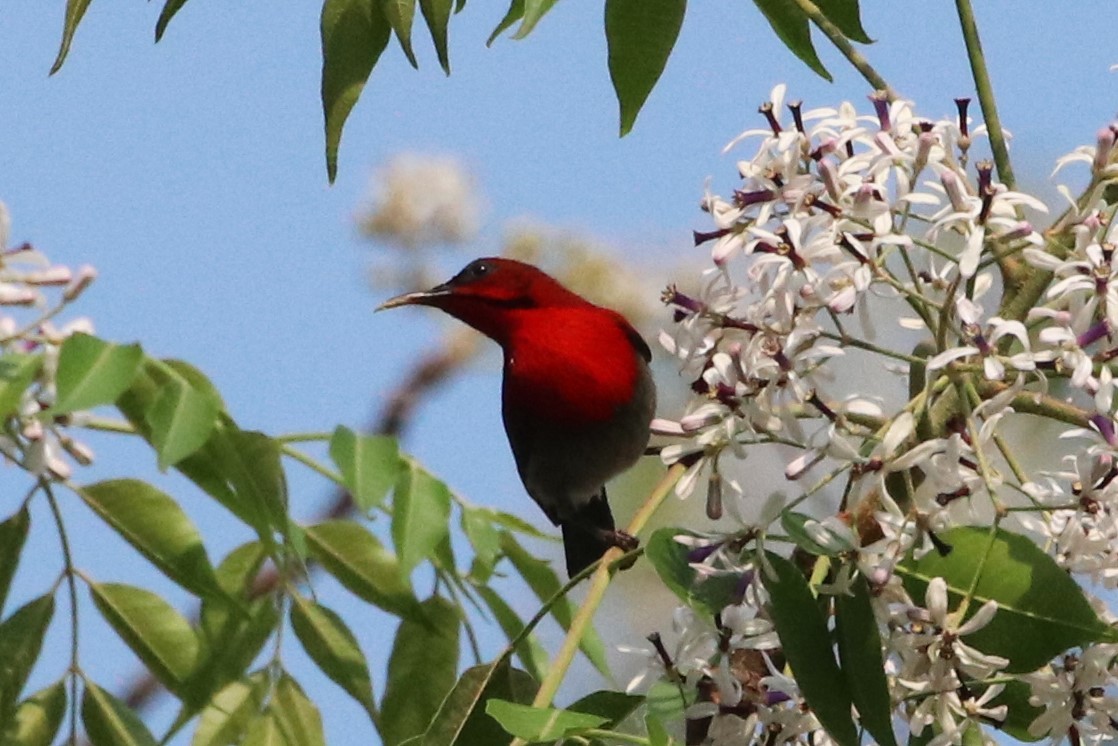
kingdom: Animalia
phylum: Chordata
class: Aves
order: Passeriformes
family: Nectariniidae
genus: Aethopyga
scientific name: Aethopyga siparaja
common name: Crimson sunbird
